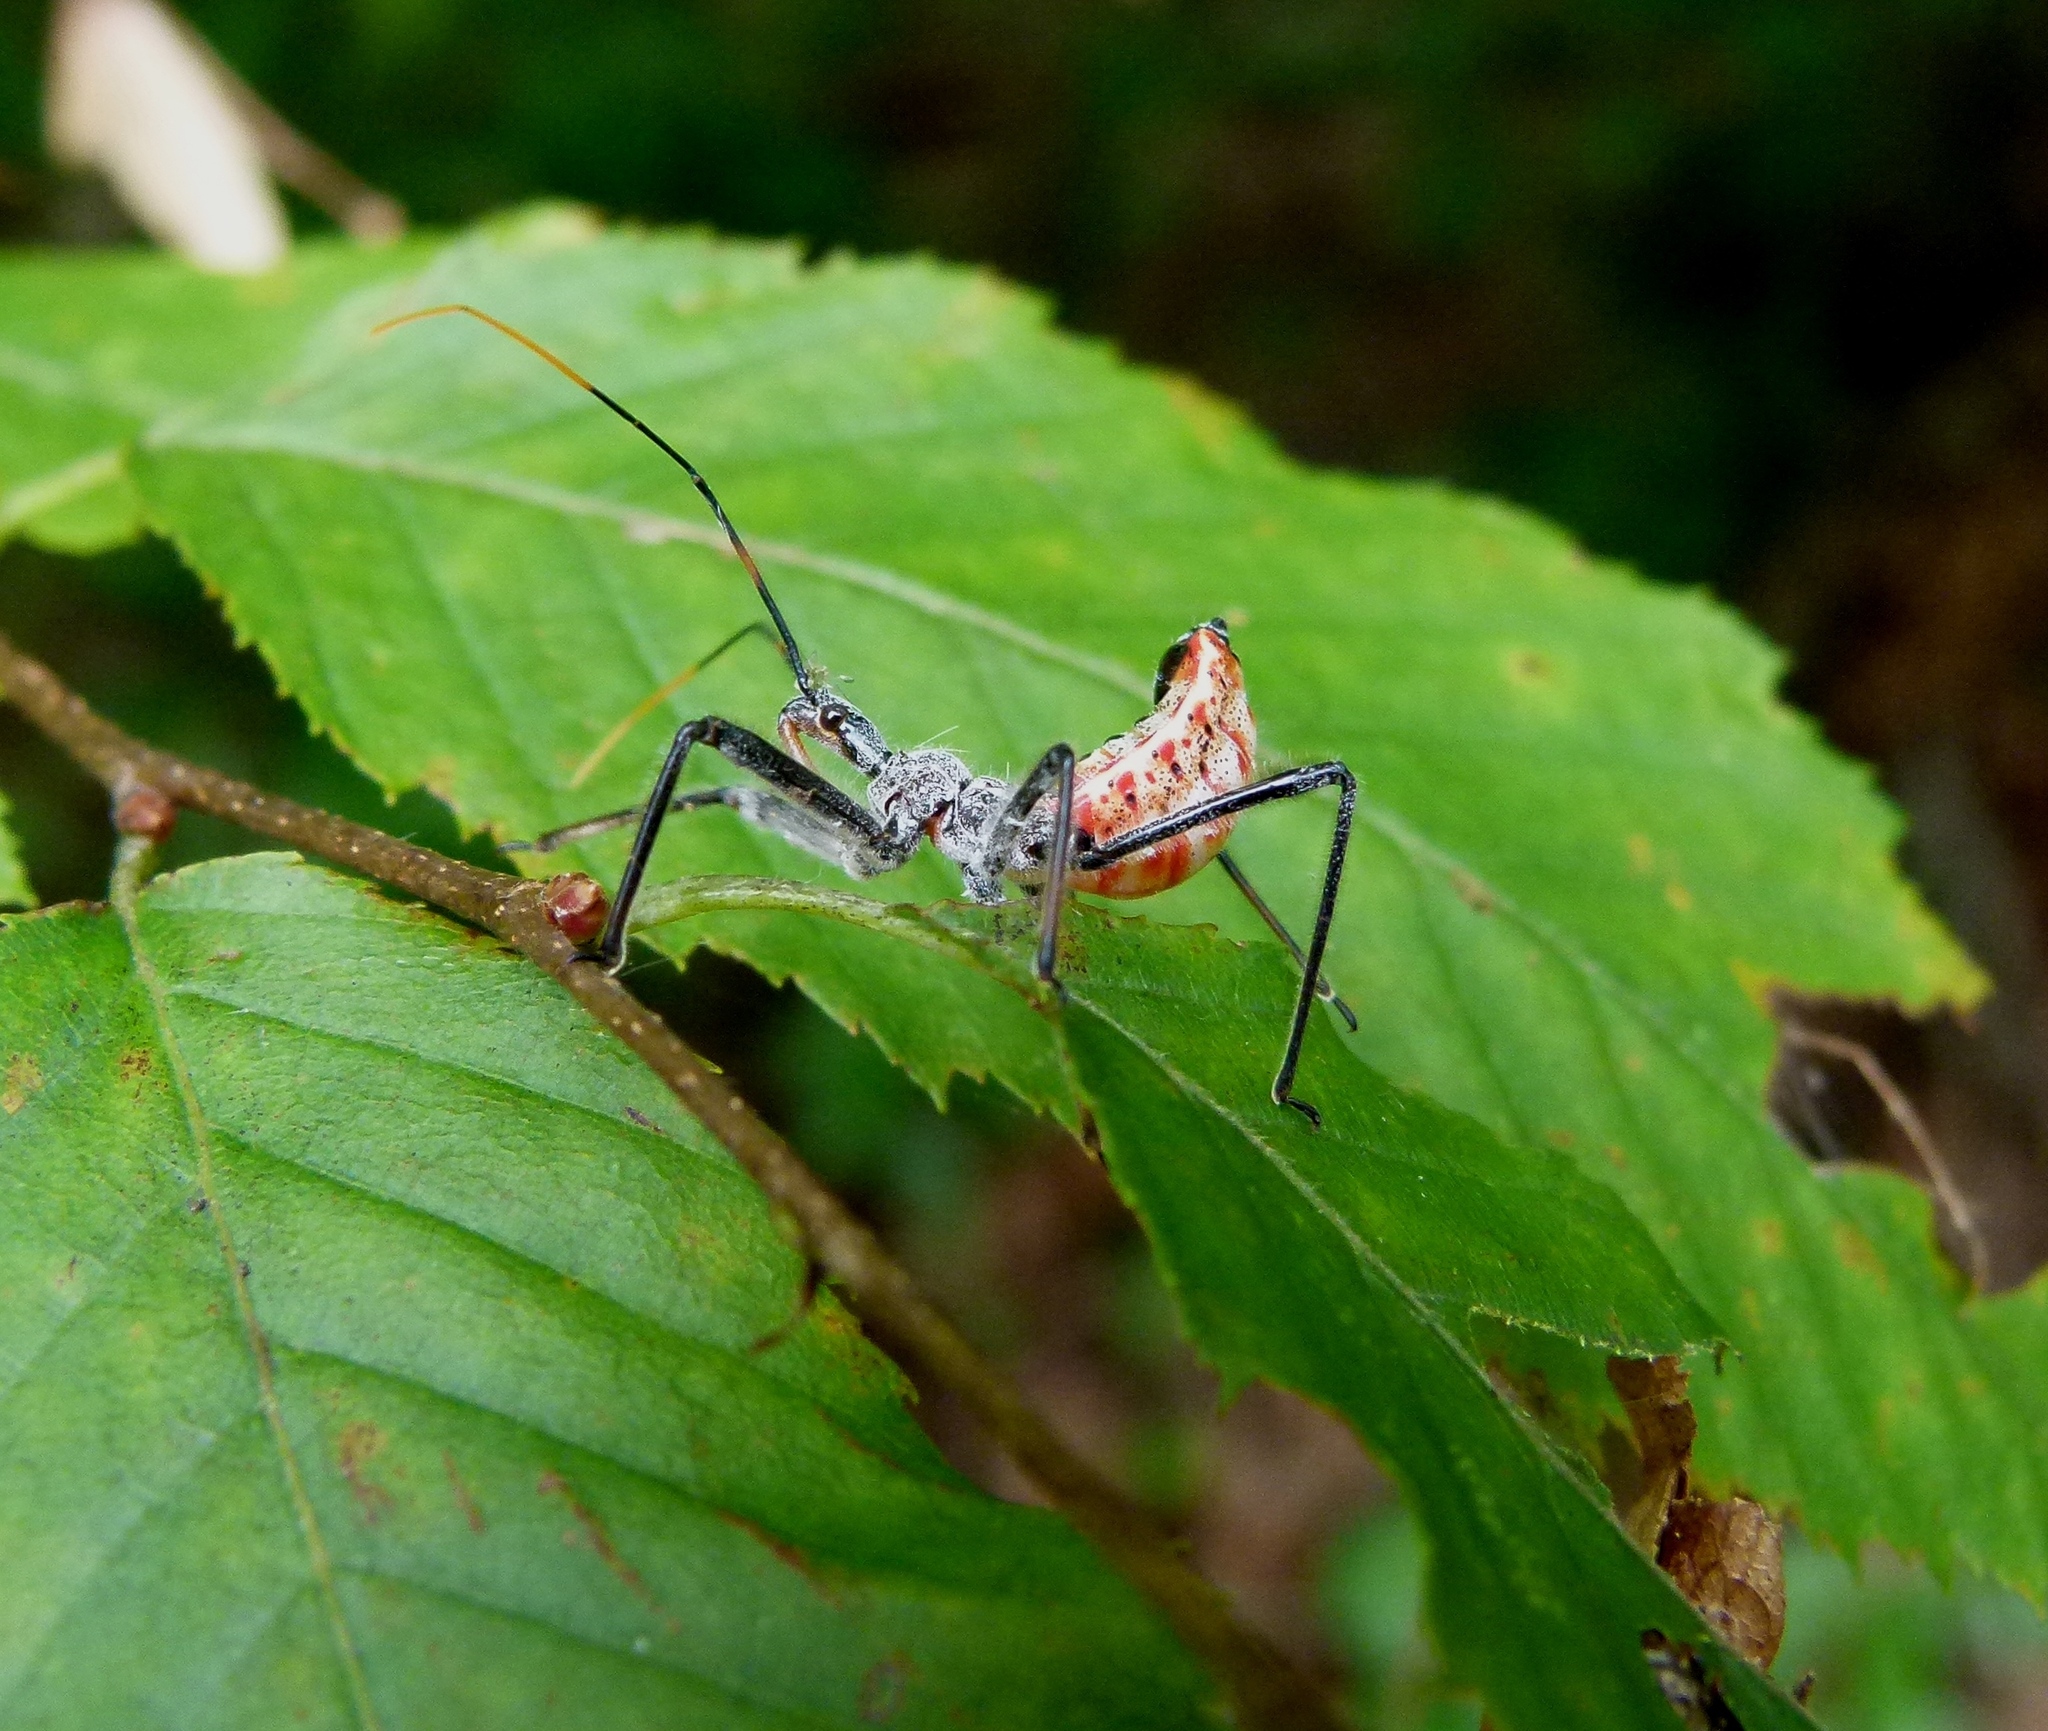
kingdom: Animalia
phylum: Arthropoda
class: Insecta
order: Hemiptera
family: Reduviidae
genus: Arilus
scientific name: Arilus cristatus
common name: North american wheel bug
